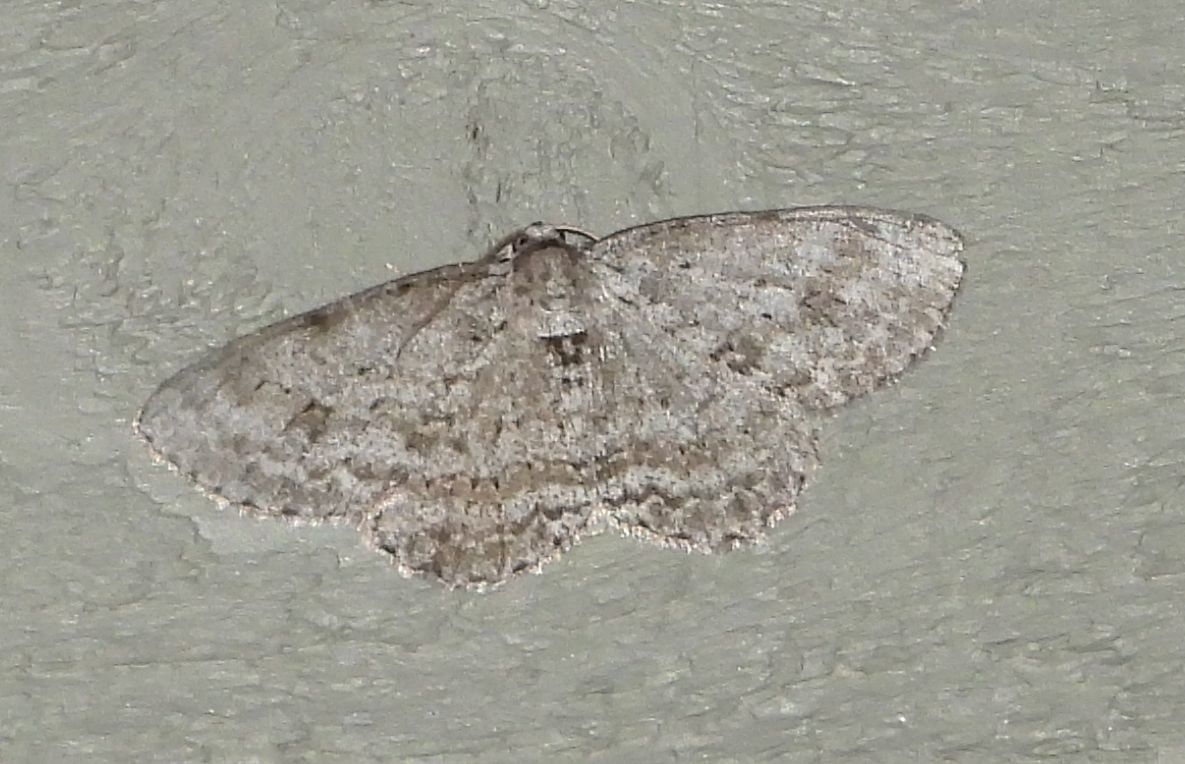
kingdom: Animalia
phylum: Arthropoda
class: Insecta
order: Lepidoptera
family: Geometridae
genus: Ectropis
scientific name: Ectropis crepuscularia
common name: Engrailed
